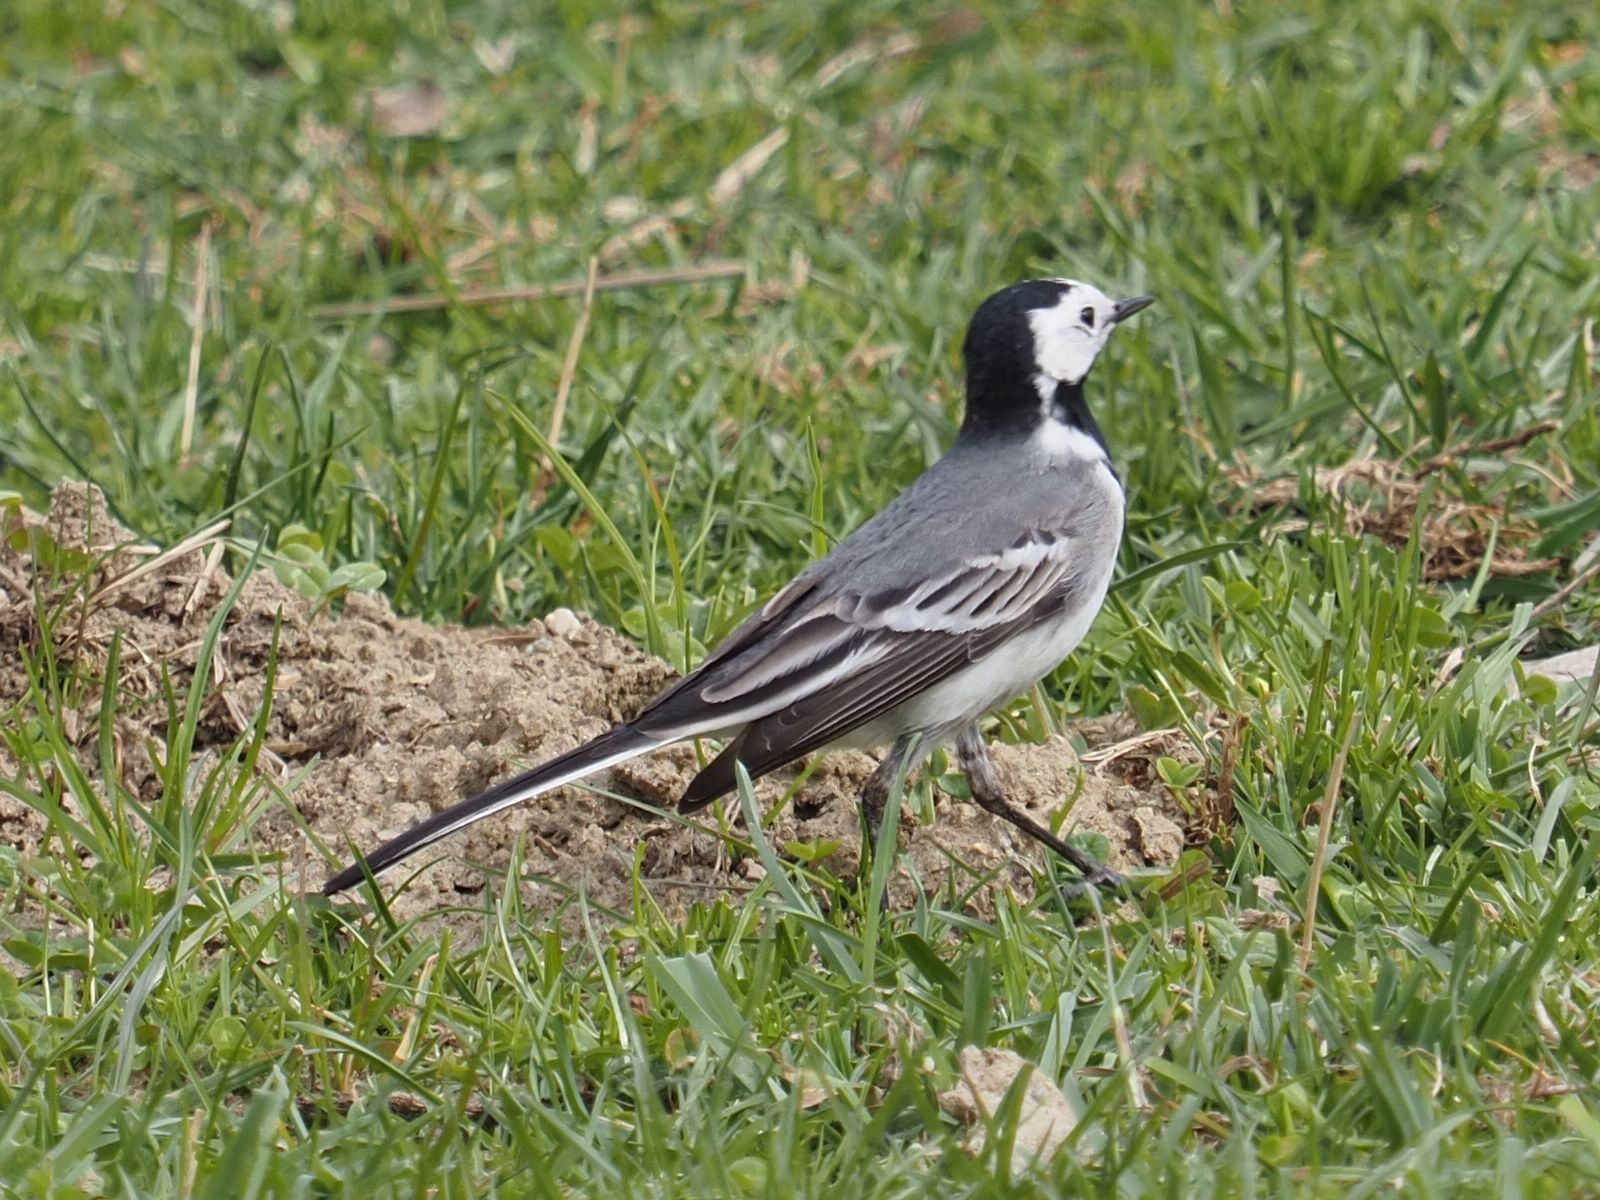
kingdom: Animalia
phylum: Chordata
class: Aves
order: Passeriformes
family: Motacillidae
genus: Motacilla
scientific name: Motacilla alba
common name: White wagtail
